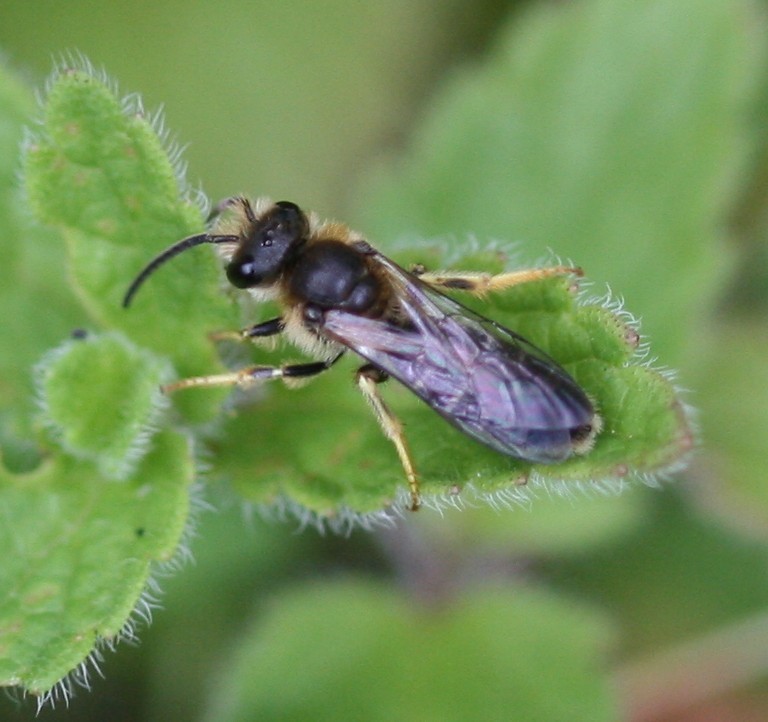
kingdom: Animalia
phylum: Arthropoda
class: Insecta
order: Hymenoptera
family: Halictidae
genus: Halictus
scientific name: Halictus rubicundus
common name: Orange-legged furrow bee
